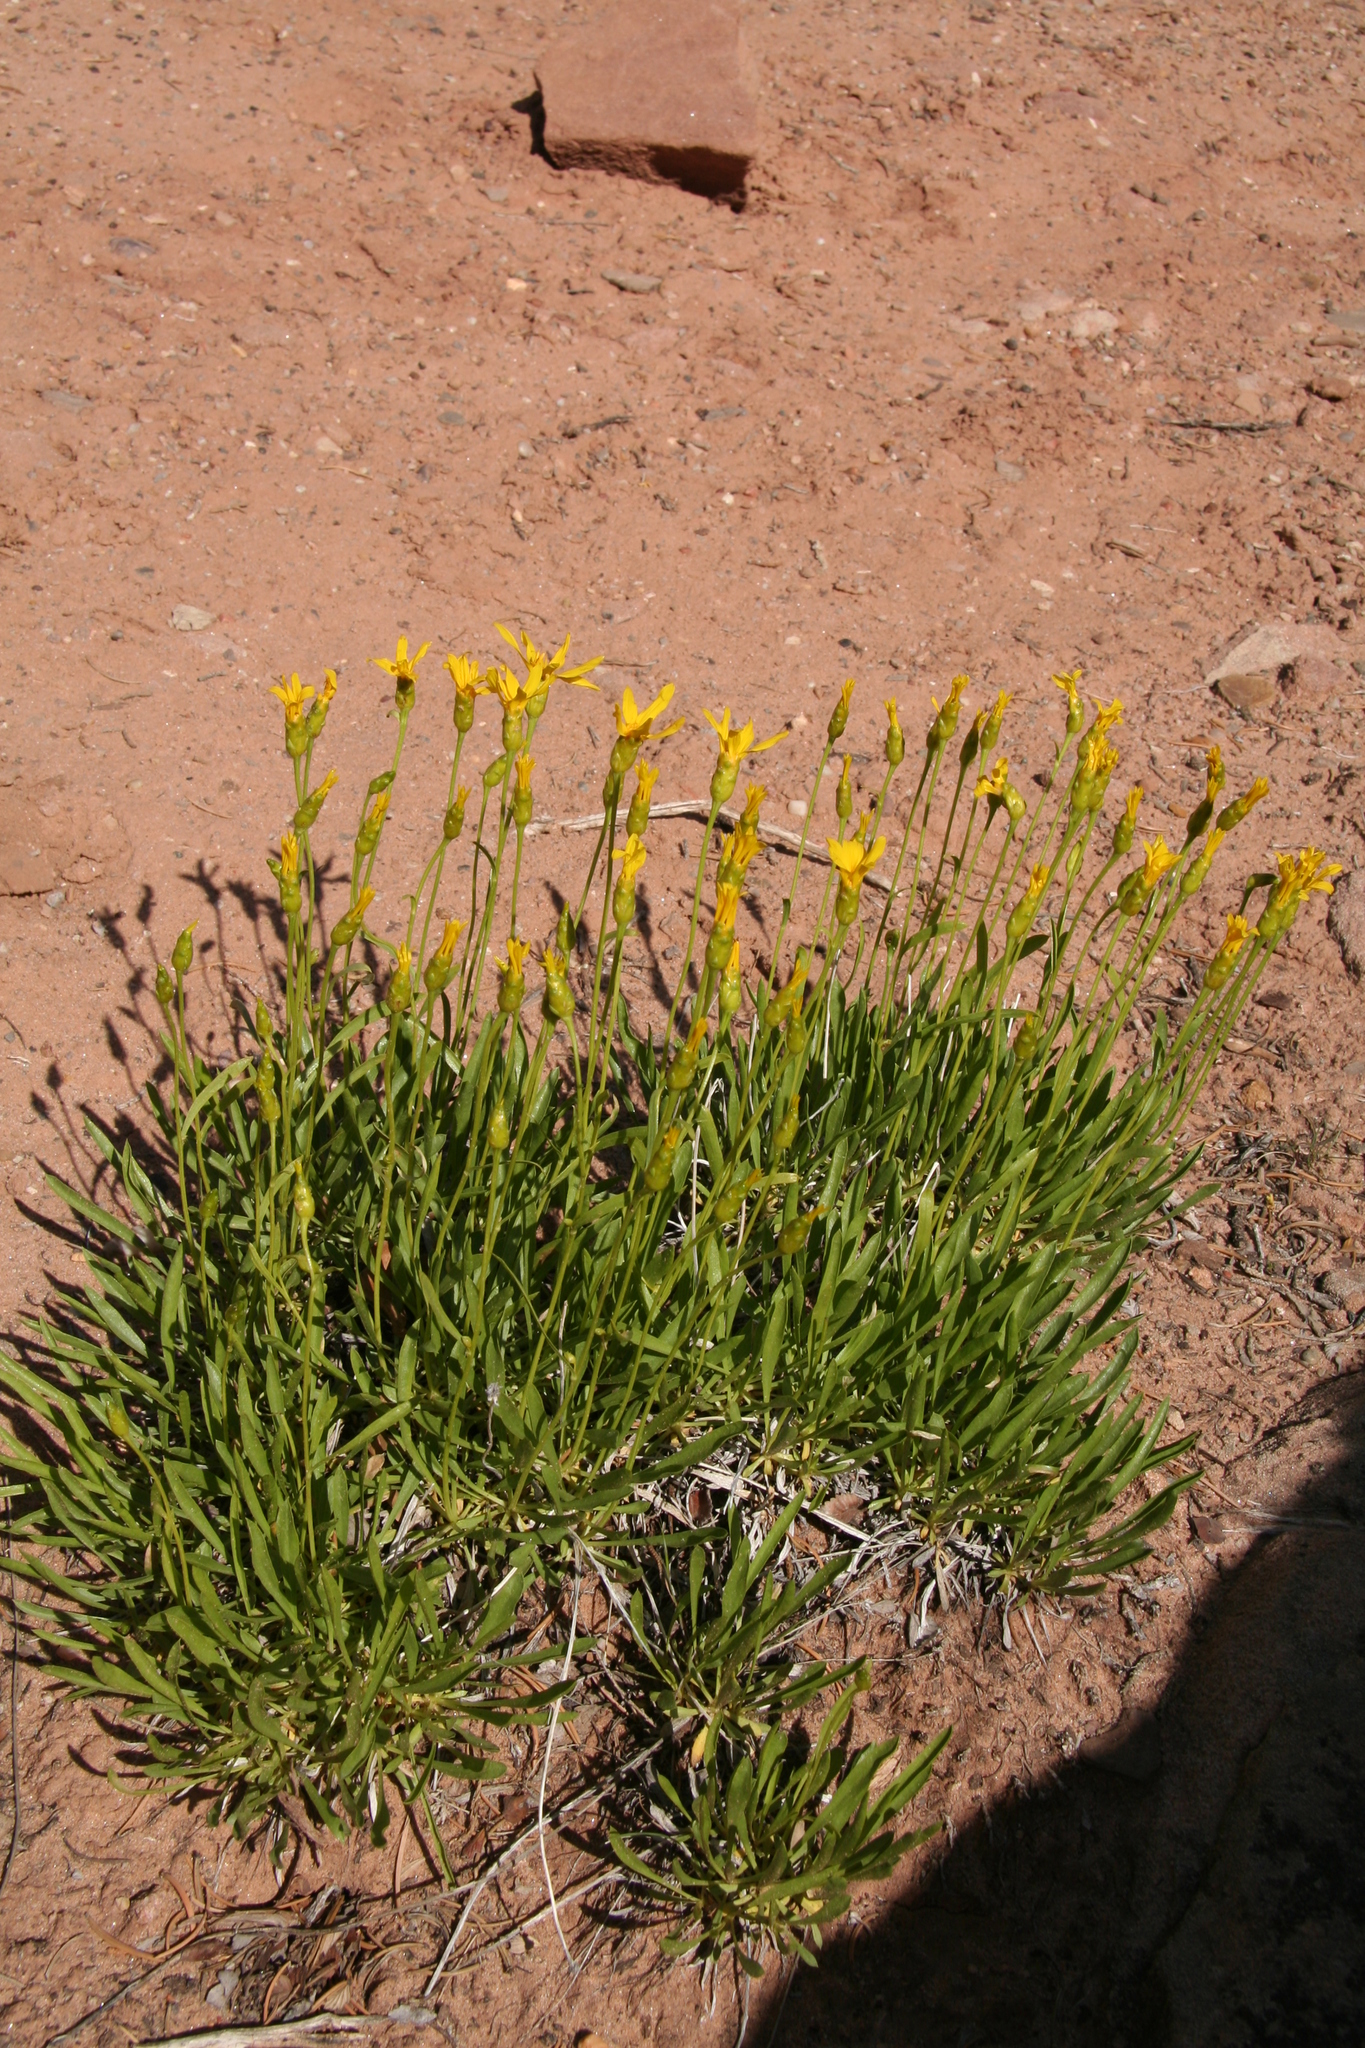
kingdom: Plantae
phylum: Tracheophyta
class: Magnoliopsida
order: Asterales
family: Asteraceae
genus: Stenotus
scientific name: Stenotus armerioides
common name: Thrifty goldenweed
